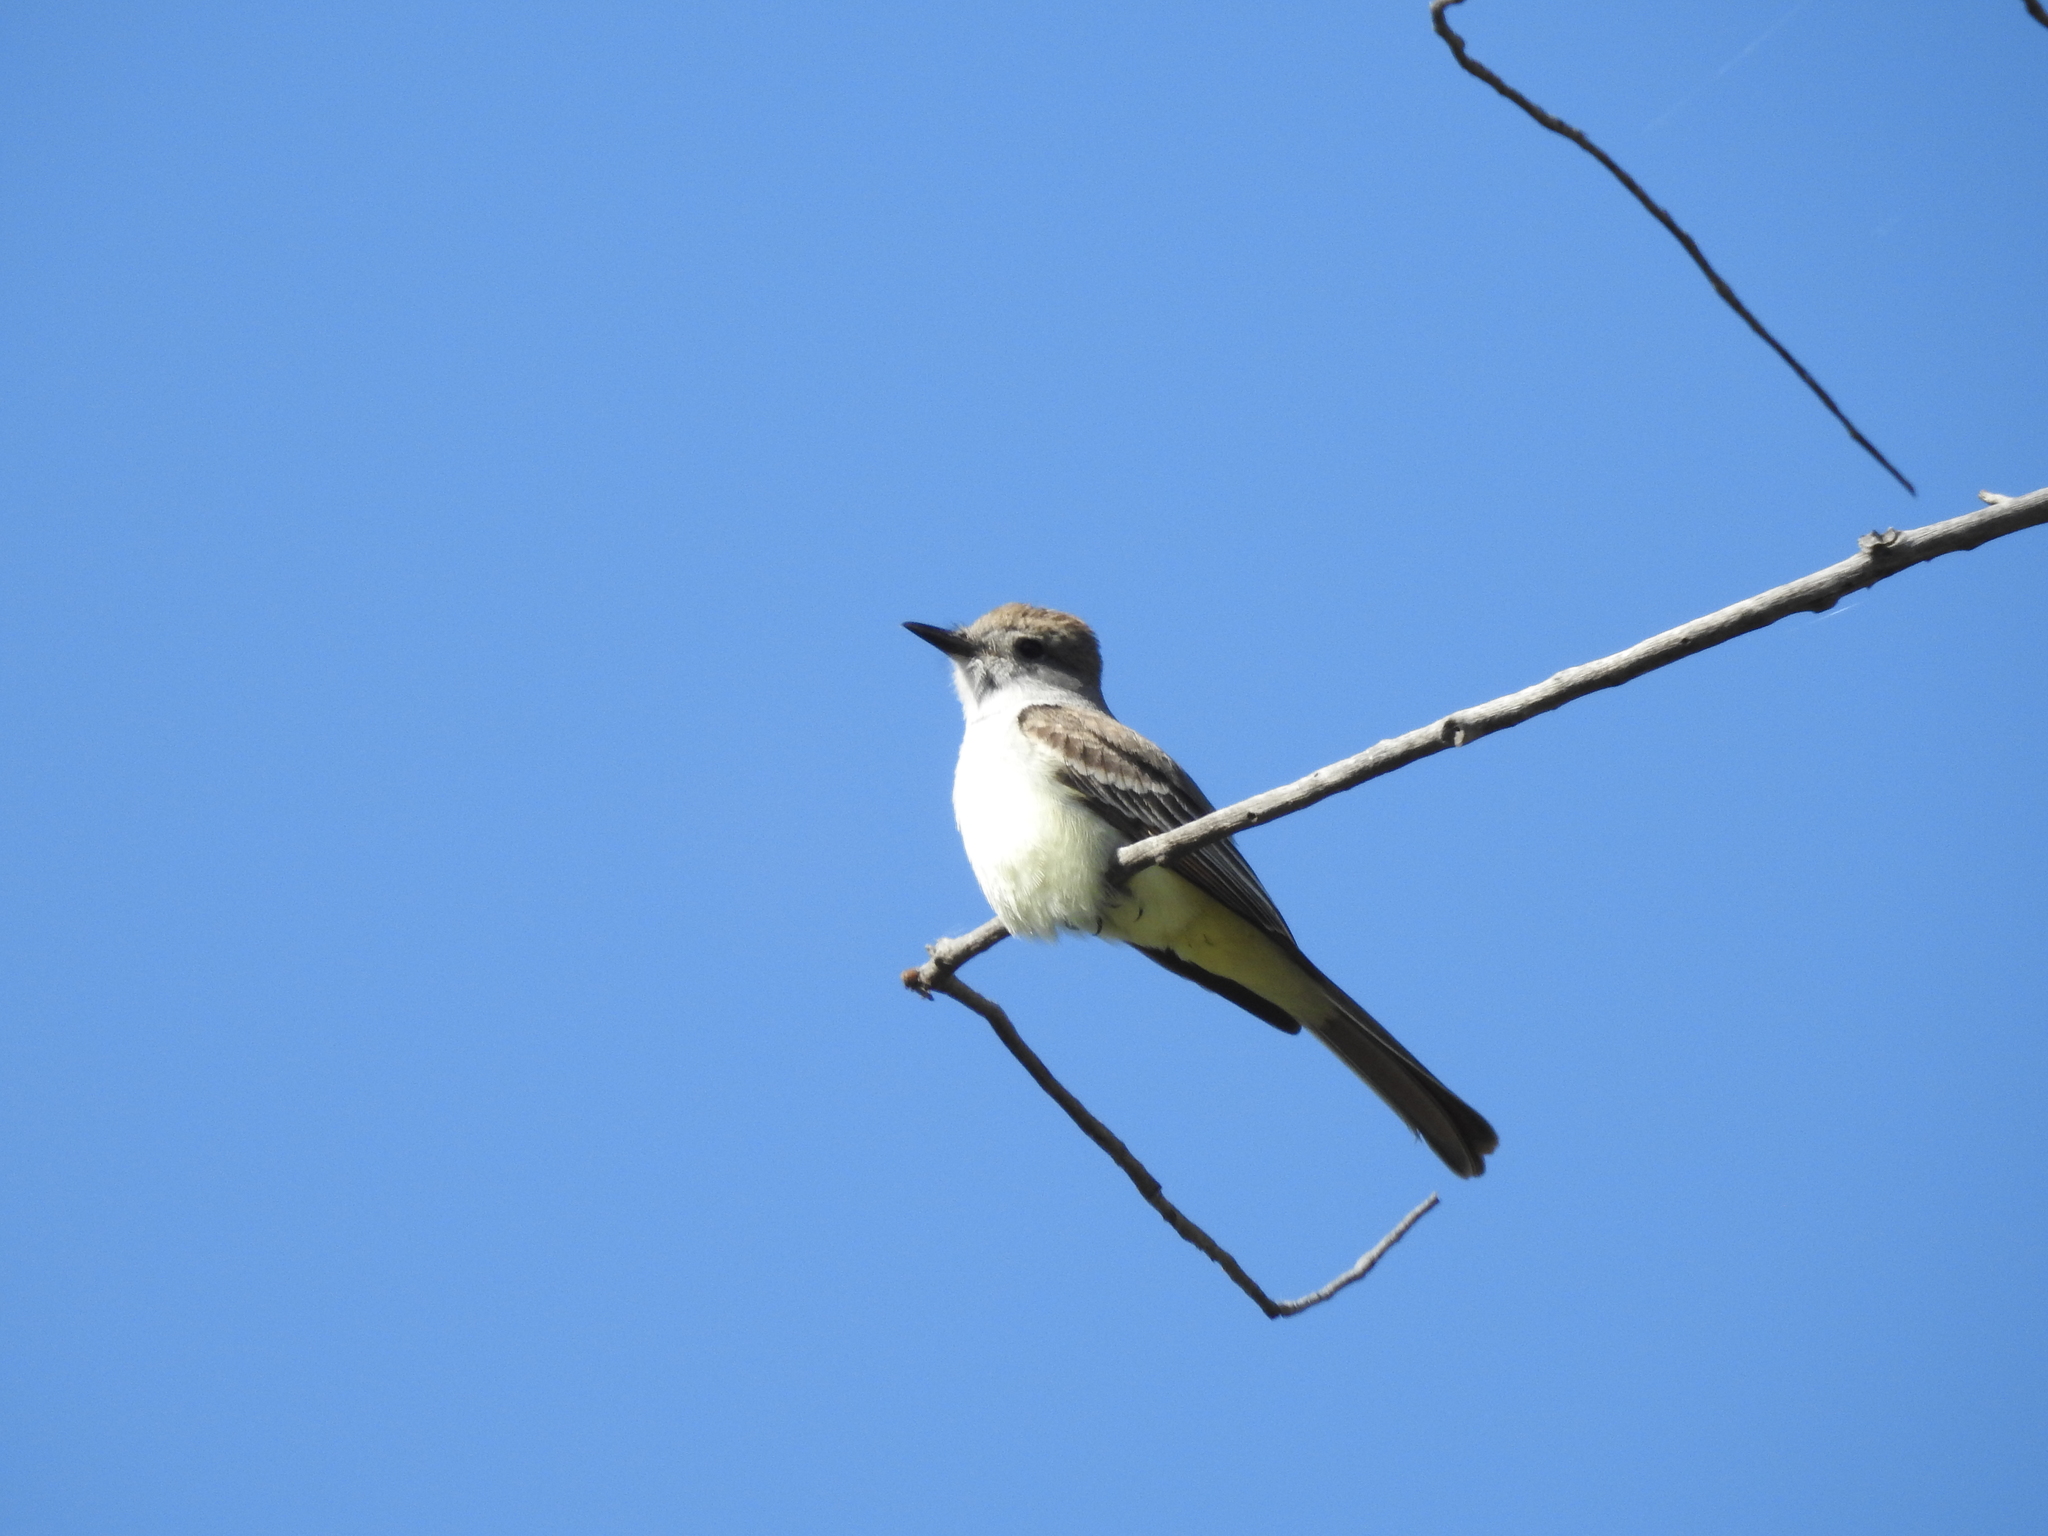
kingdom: Animalia
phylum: Chordata
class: Aves
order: Passeriformes
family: Tyrannidae
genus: Myiarchus
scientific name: Myiarchus cinerascens
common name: Ash-throated flycatcher
